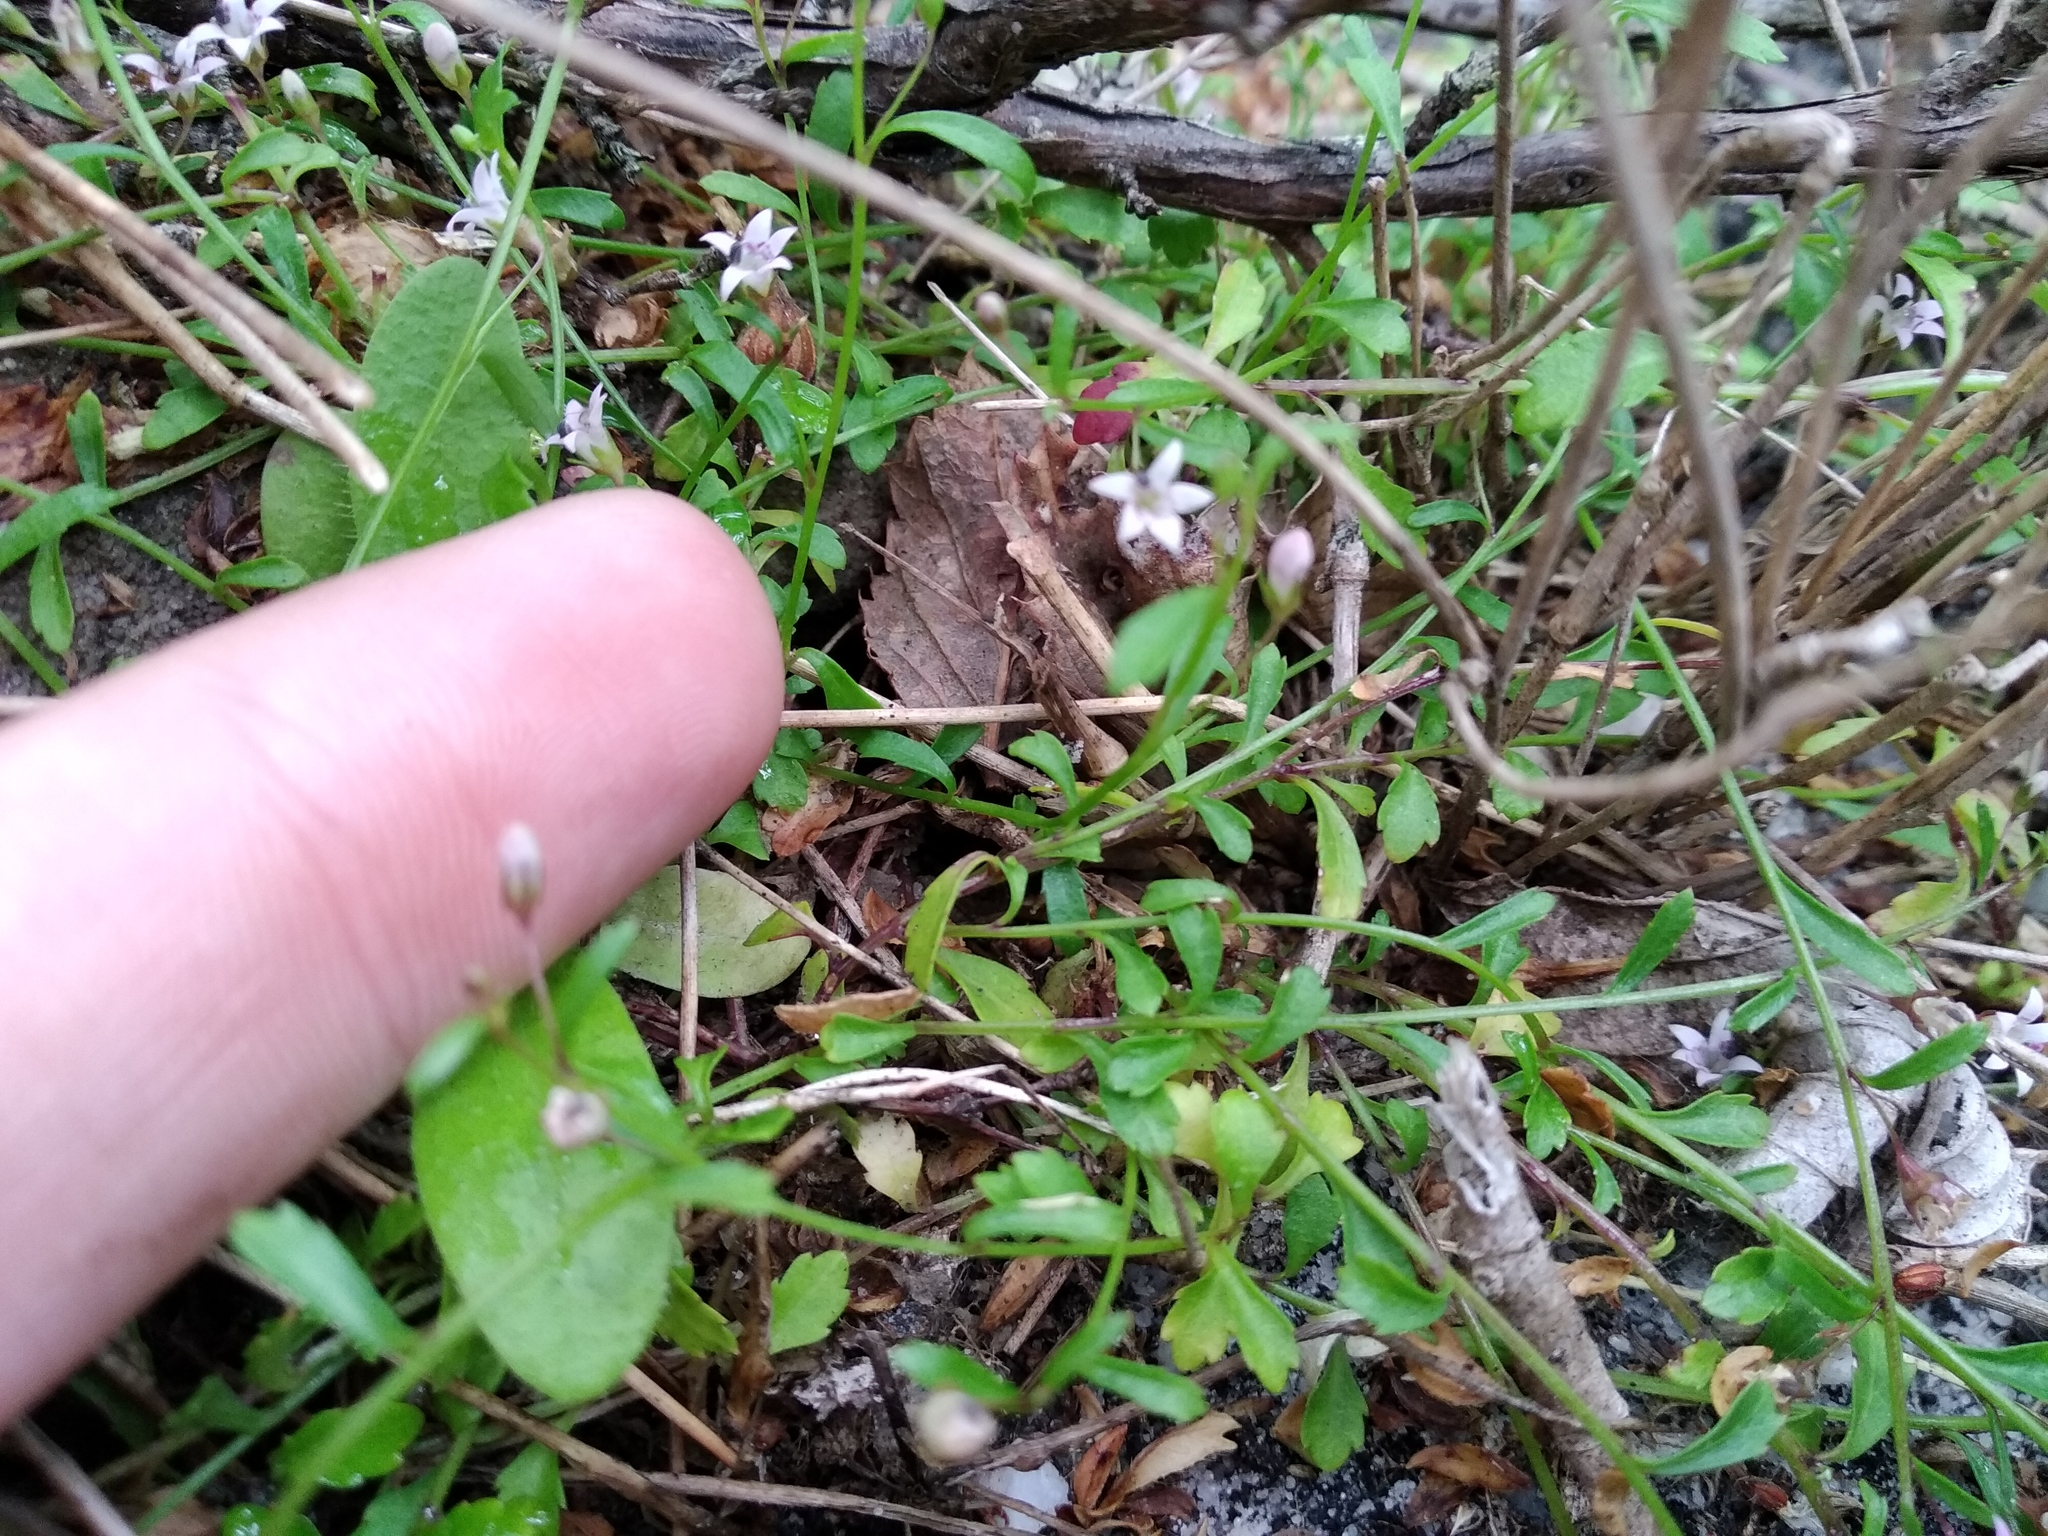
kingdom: Plantae
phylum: Tracheophyta
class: Magnoliopsida
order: Asterales
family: Campanulaceae
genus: Lobelia
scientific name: Lobelia eckloniana
